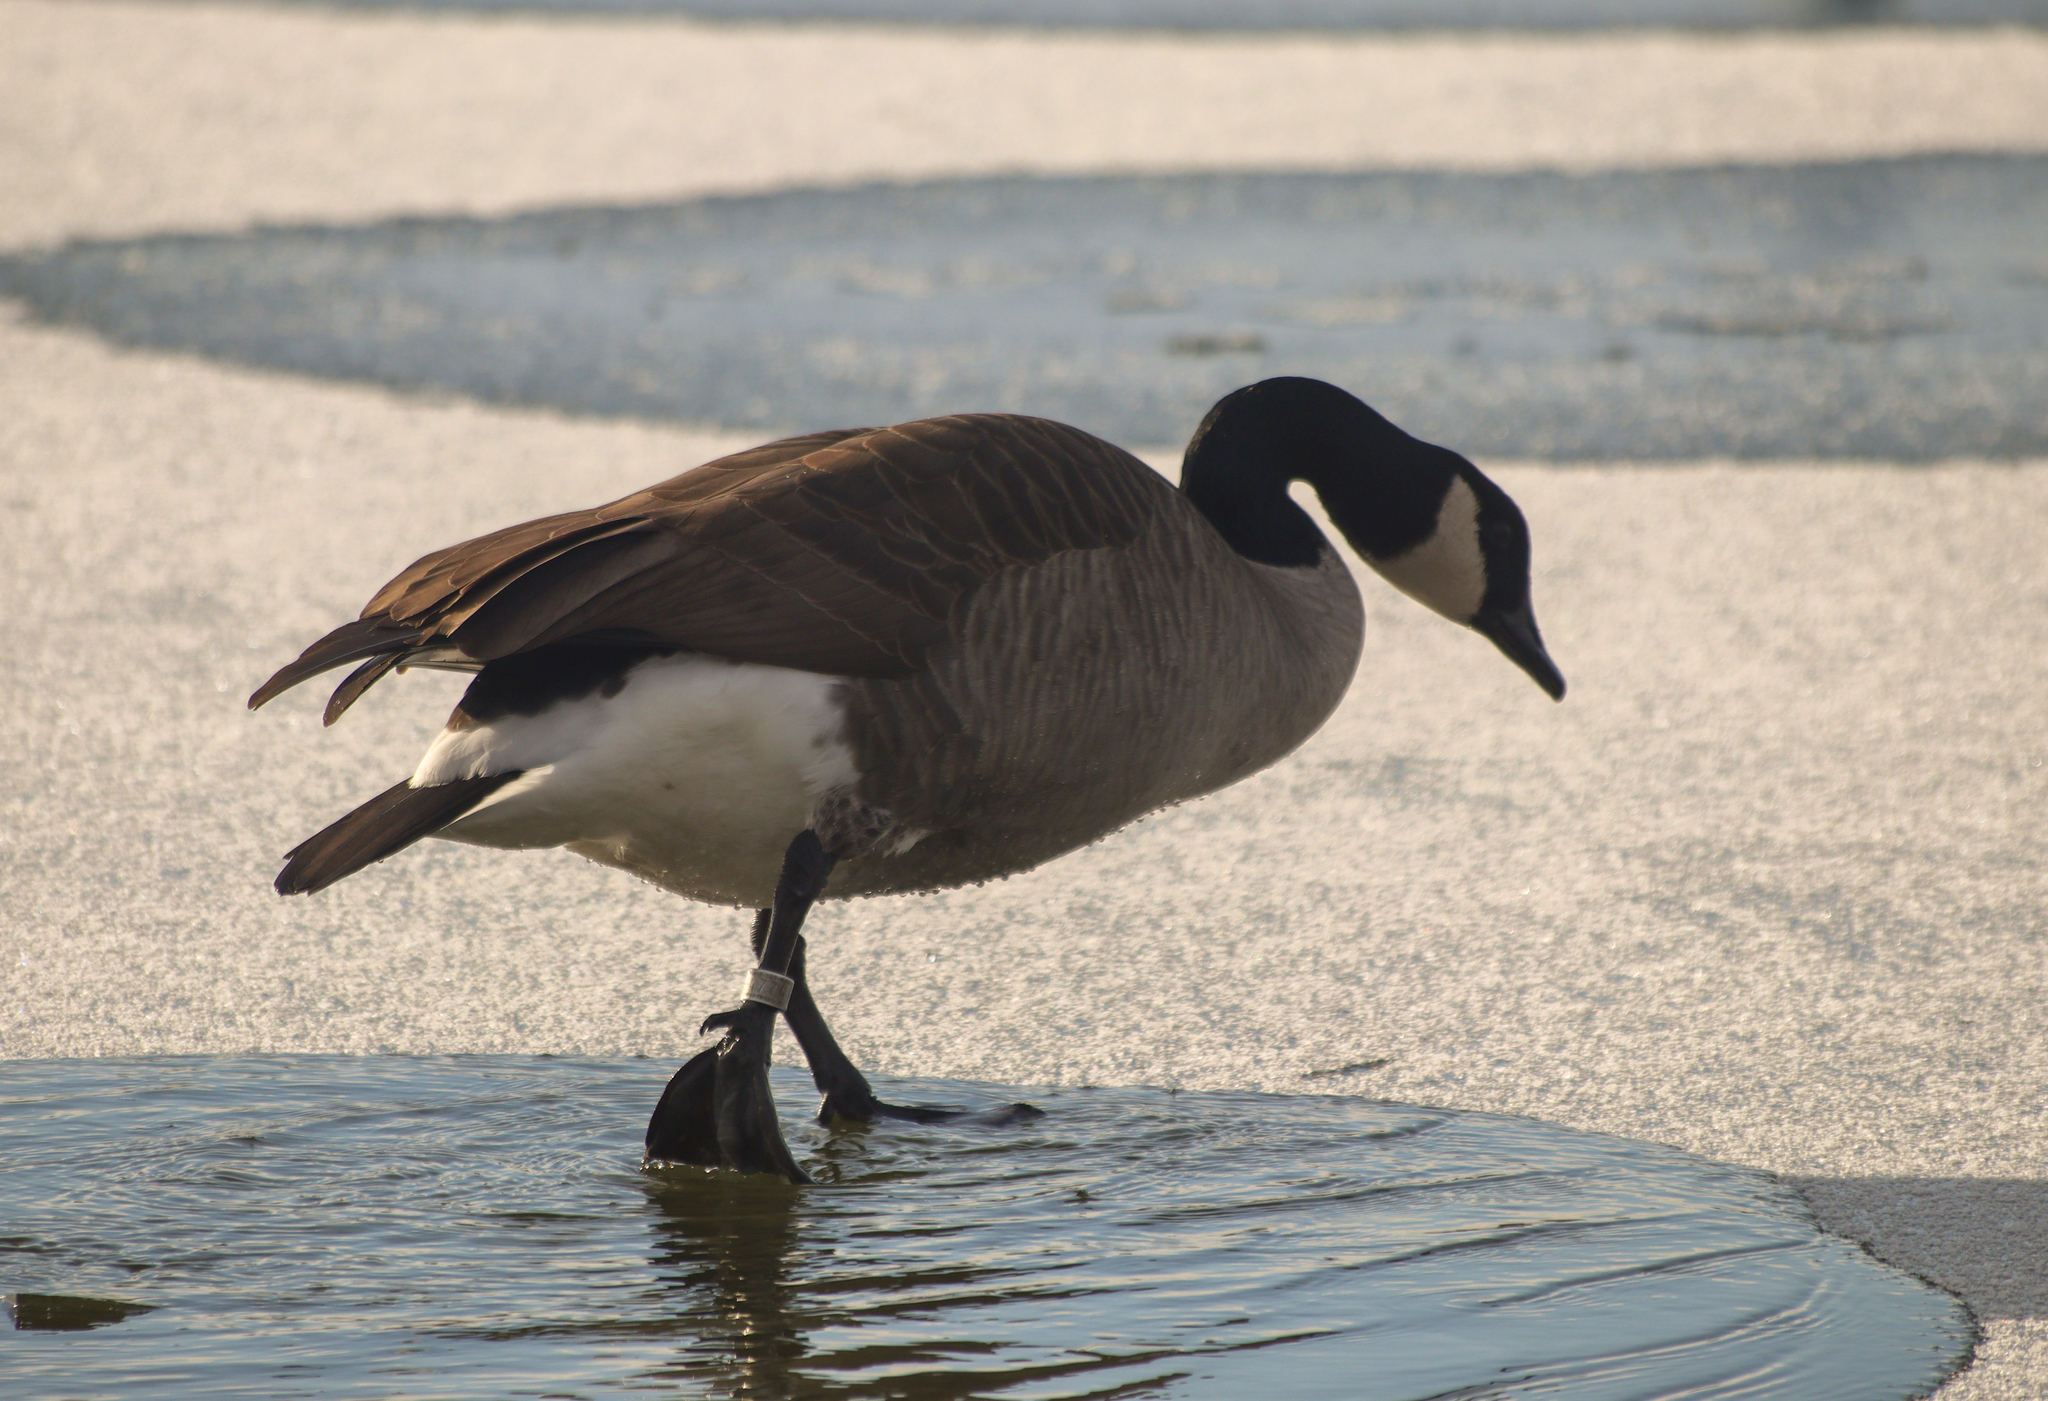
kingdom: Animalia
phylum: Chordata
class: Aves
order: Anseriformes
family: Anatidae
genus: Branta
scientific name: Branta canadensis
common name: Canada goose
